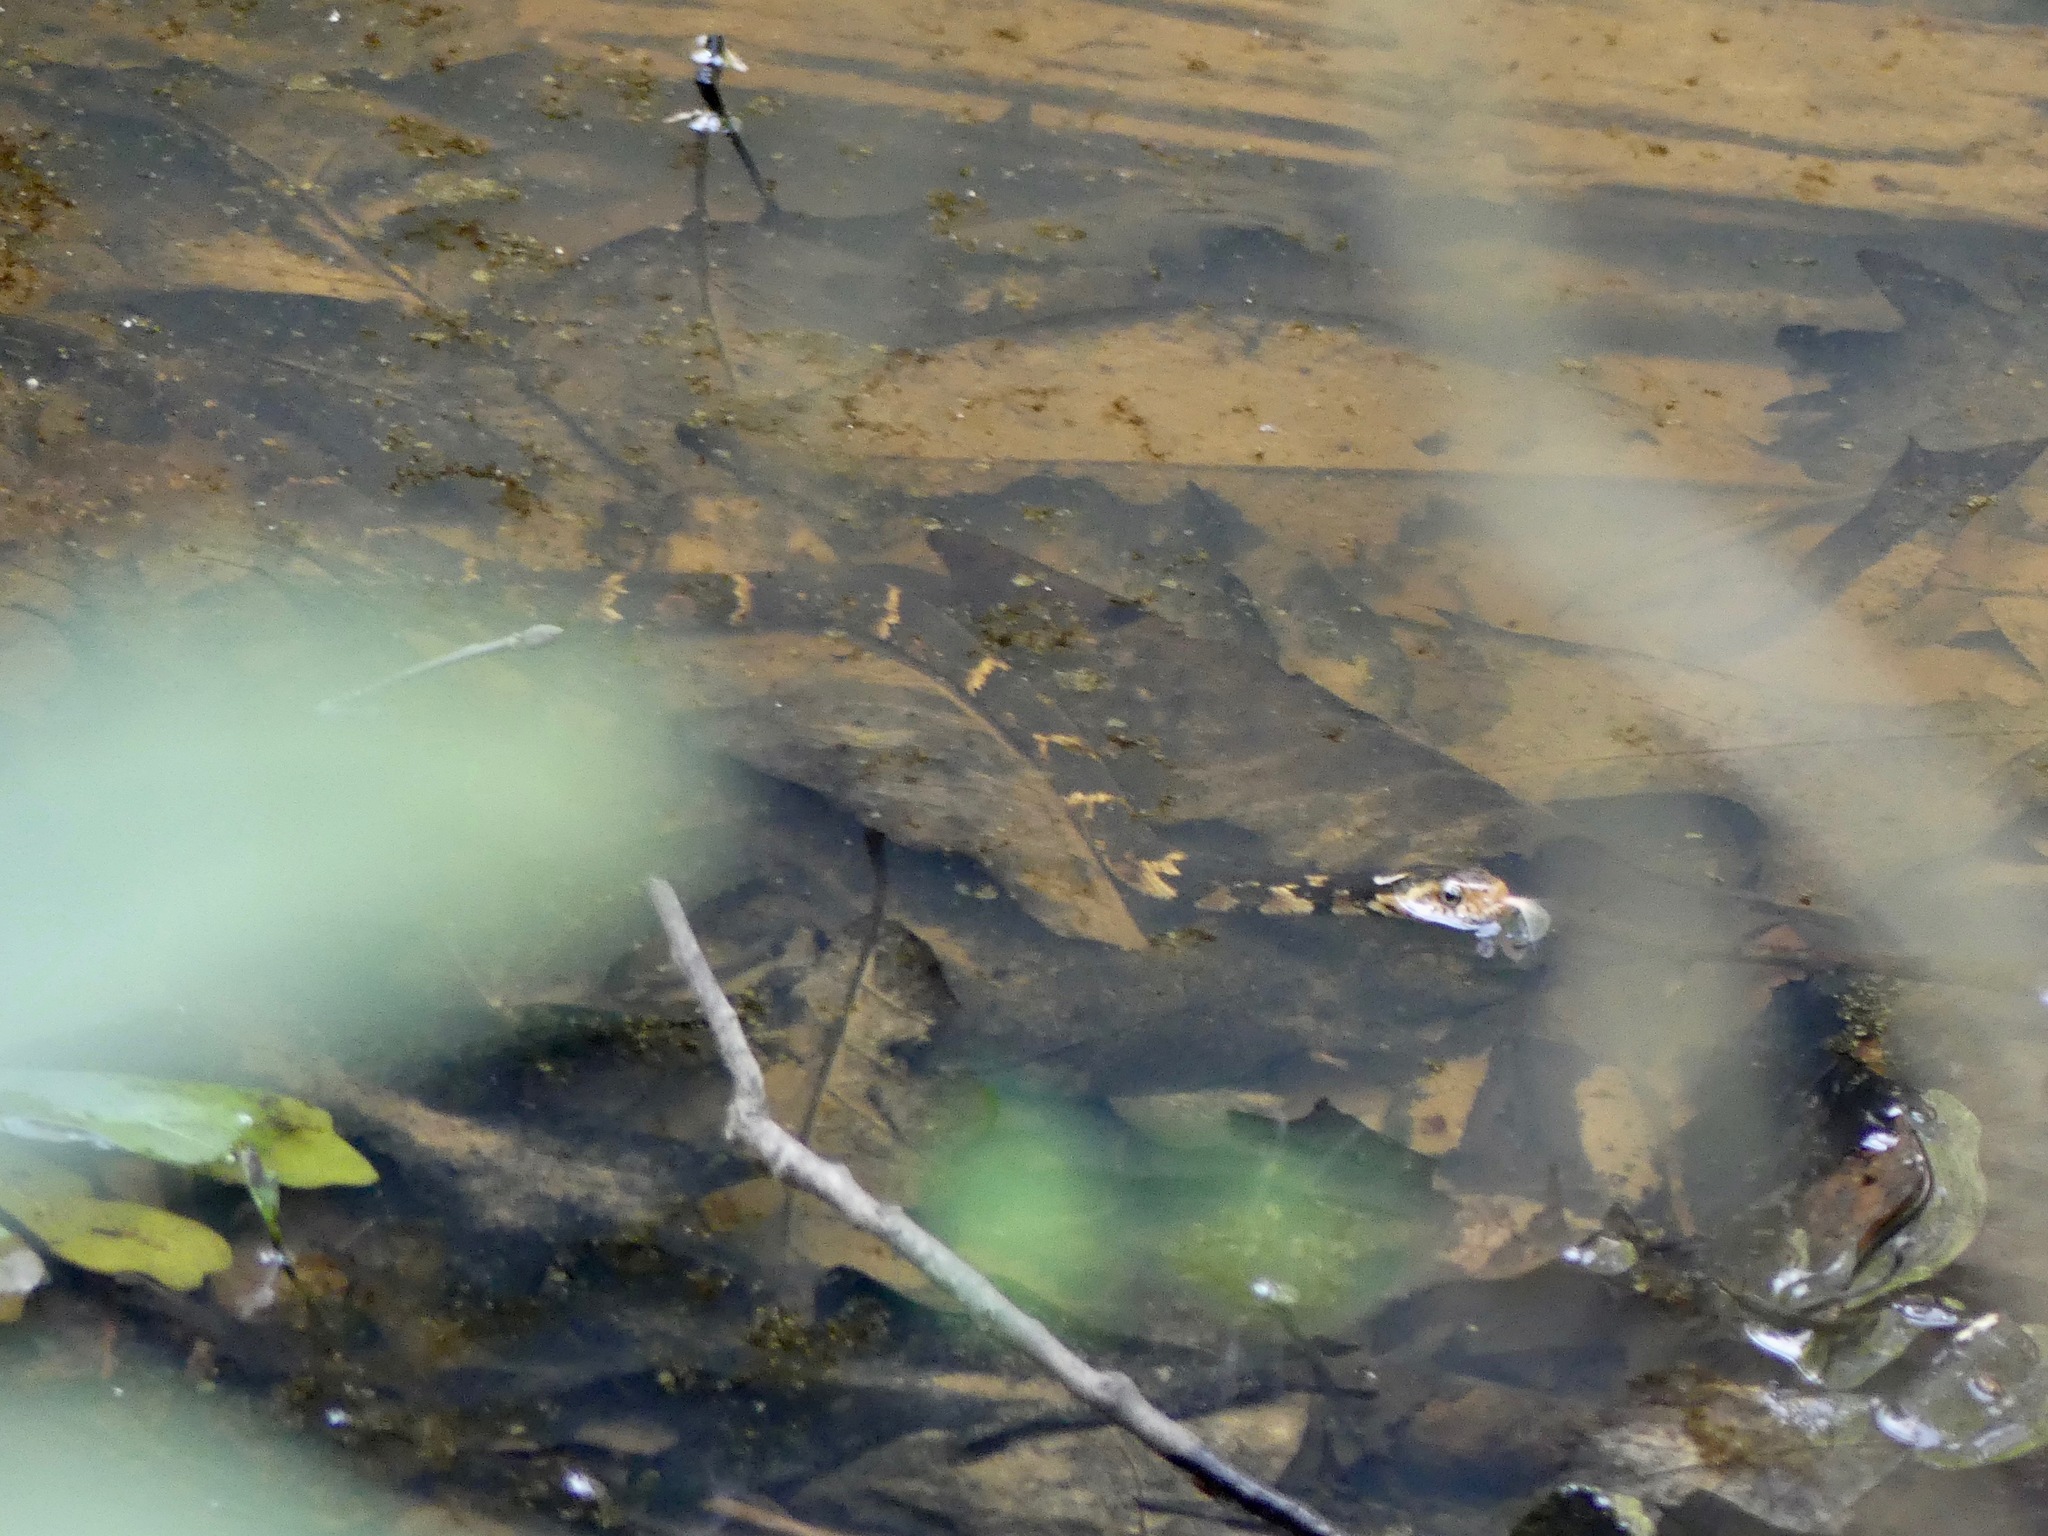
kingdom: Animalia
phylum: Chordata
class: Squamata
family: Colubridae
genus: Nerodia
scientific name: Nerodia fasciata
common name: Southern water snake
